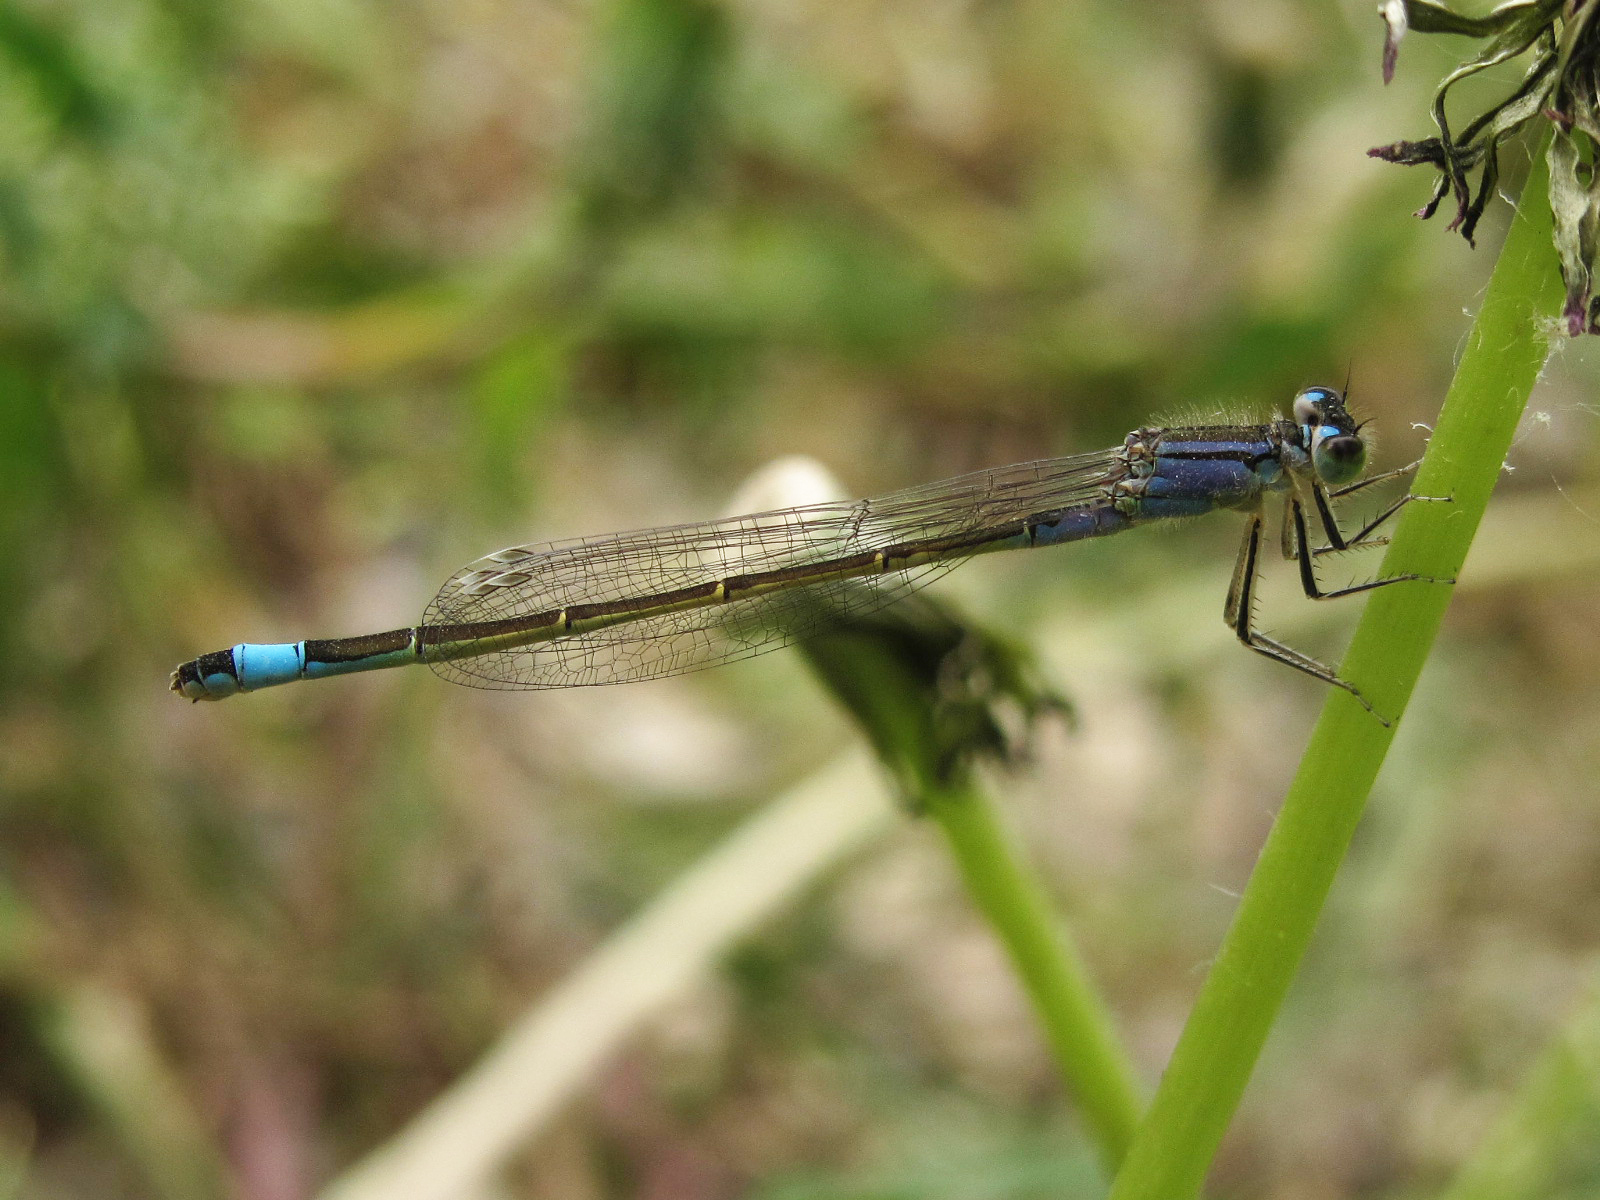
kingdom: Animalia
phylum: Arthropoda
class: Insecta
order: Odonata
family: Coenagrionidae
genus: Ischnura
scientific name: Ischnura elegans
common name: Blue-tailed damselfly
